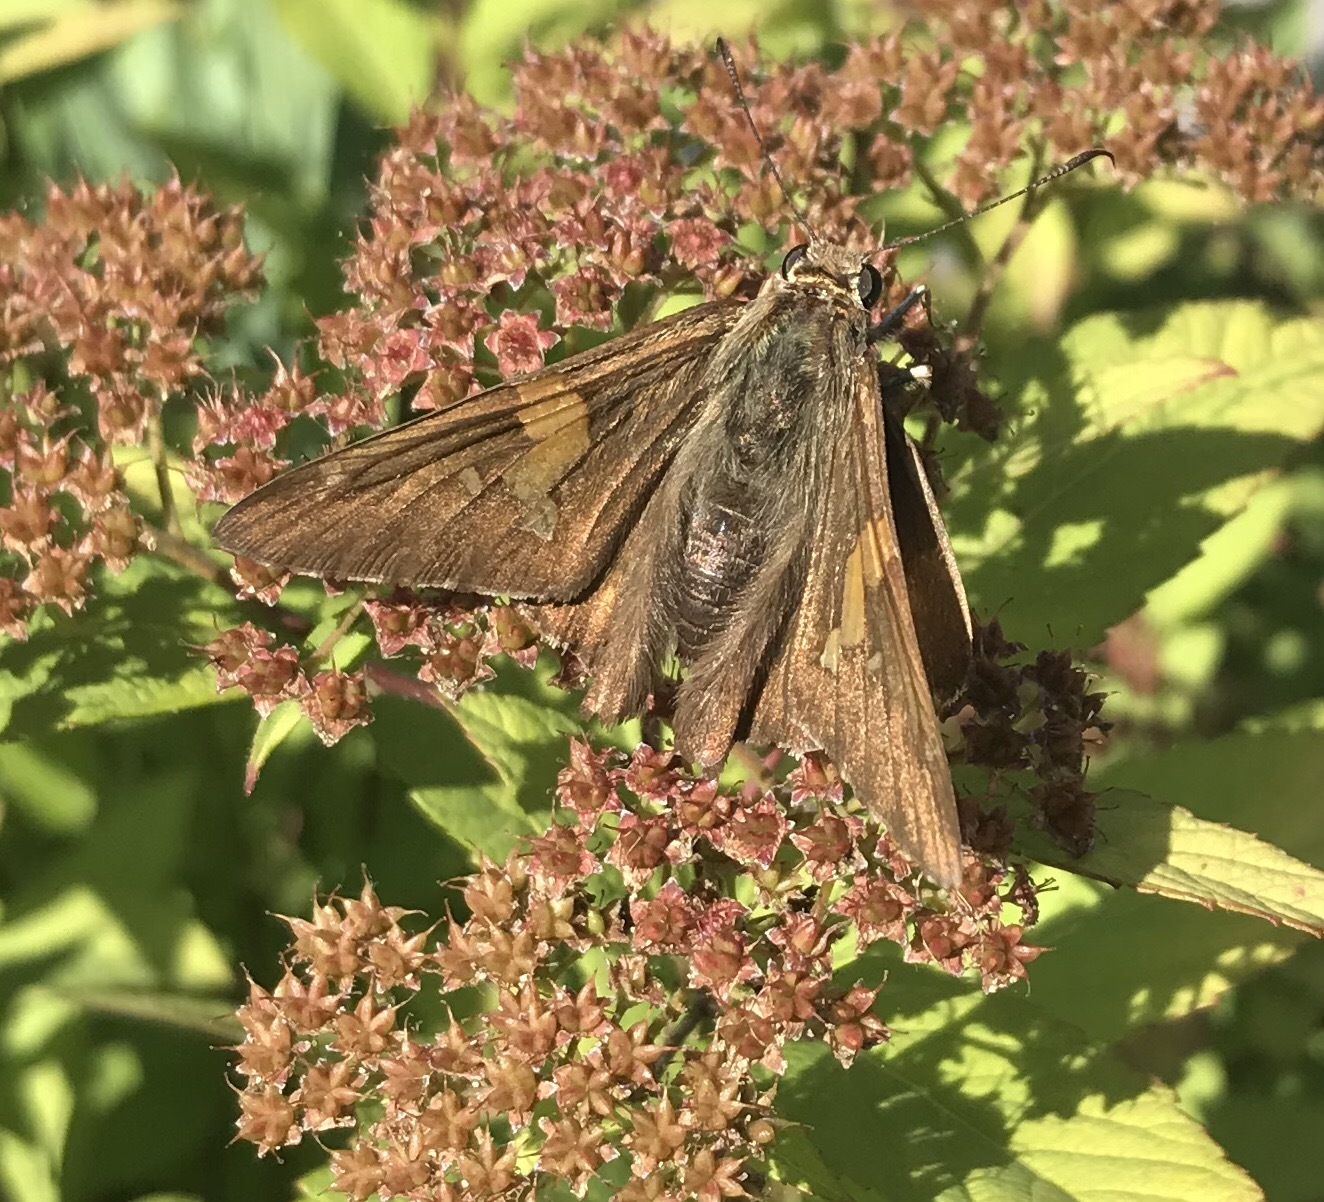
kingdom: Animalia
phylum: Arthropoda
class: Insecta
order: Lepidoptera
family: Hesperiidae
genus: Epargyreus
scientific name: Epargyreus clarus
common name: Silver-spotted skipper
